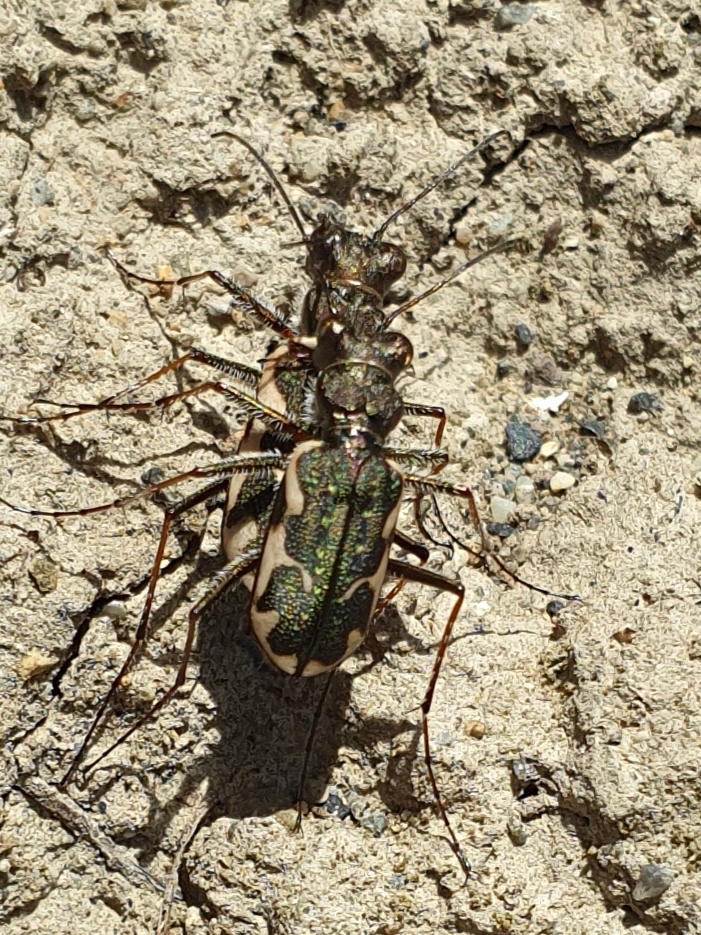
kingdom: Animalia
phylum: Arthropoda
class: Insecta
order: Coleoptera
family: Carabidae
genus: Neocicindela
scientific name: Neocicindela tuberculata
